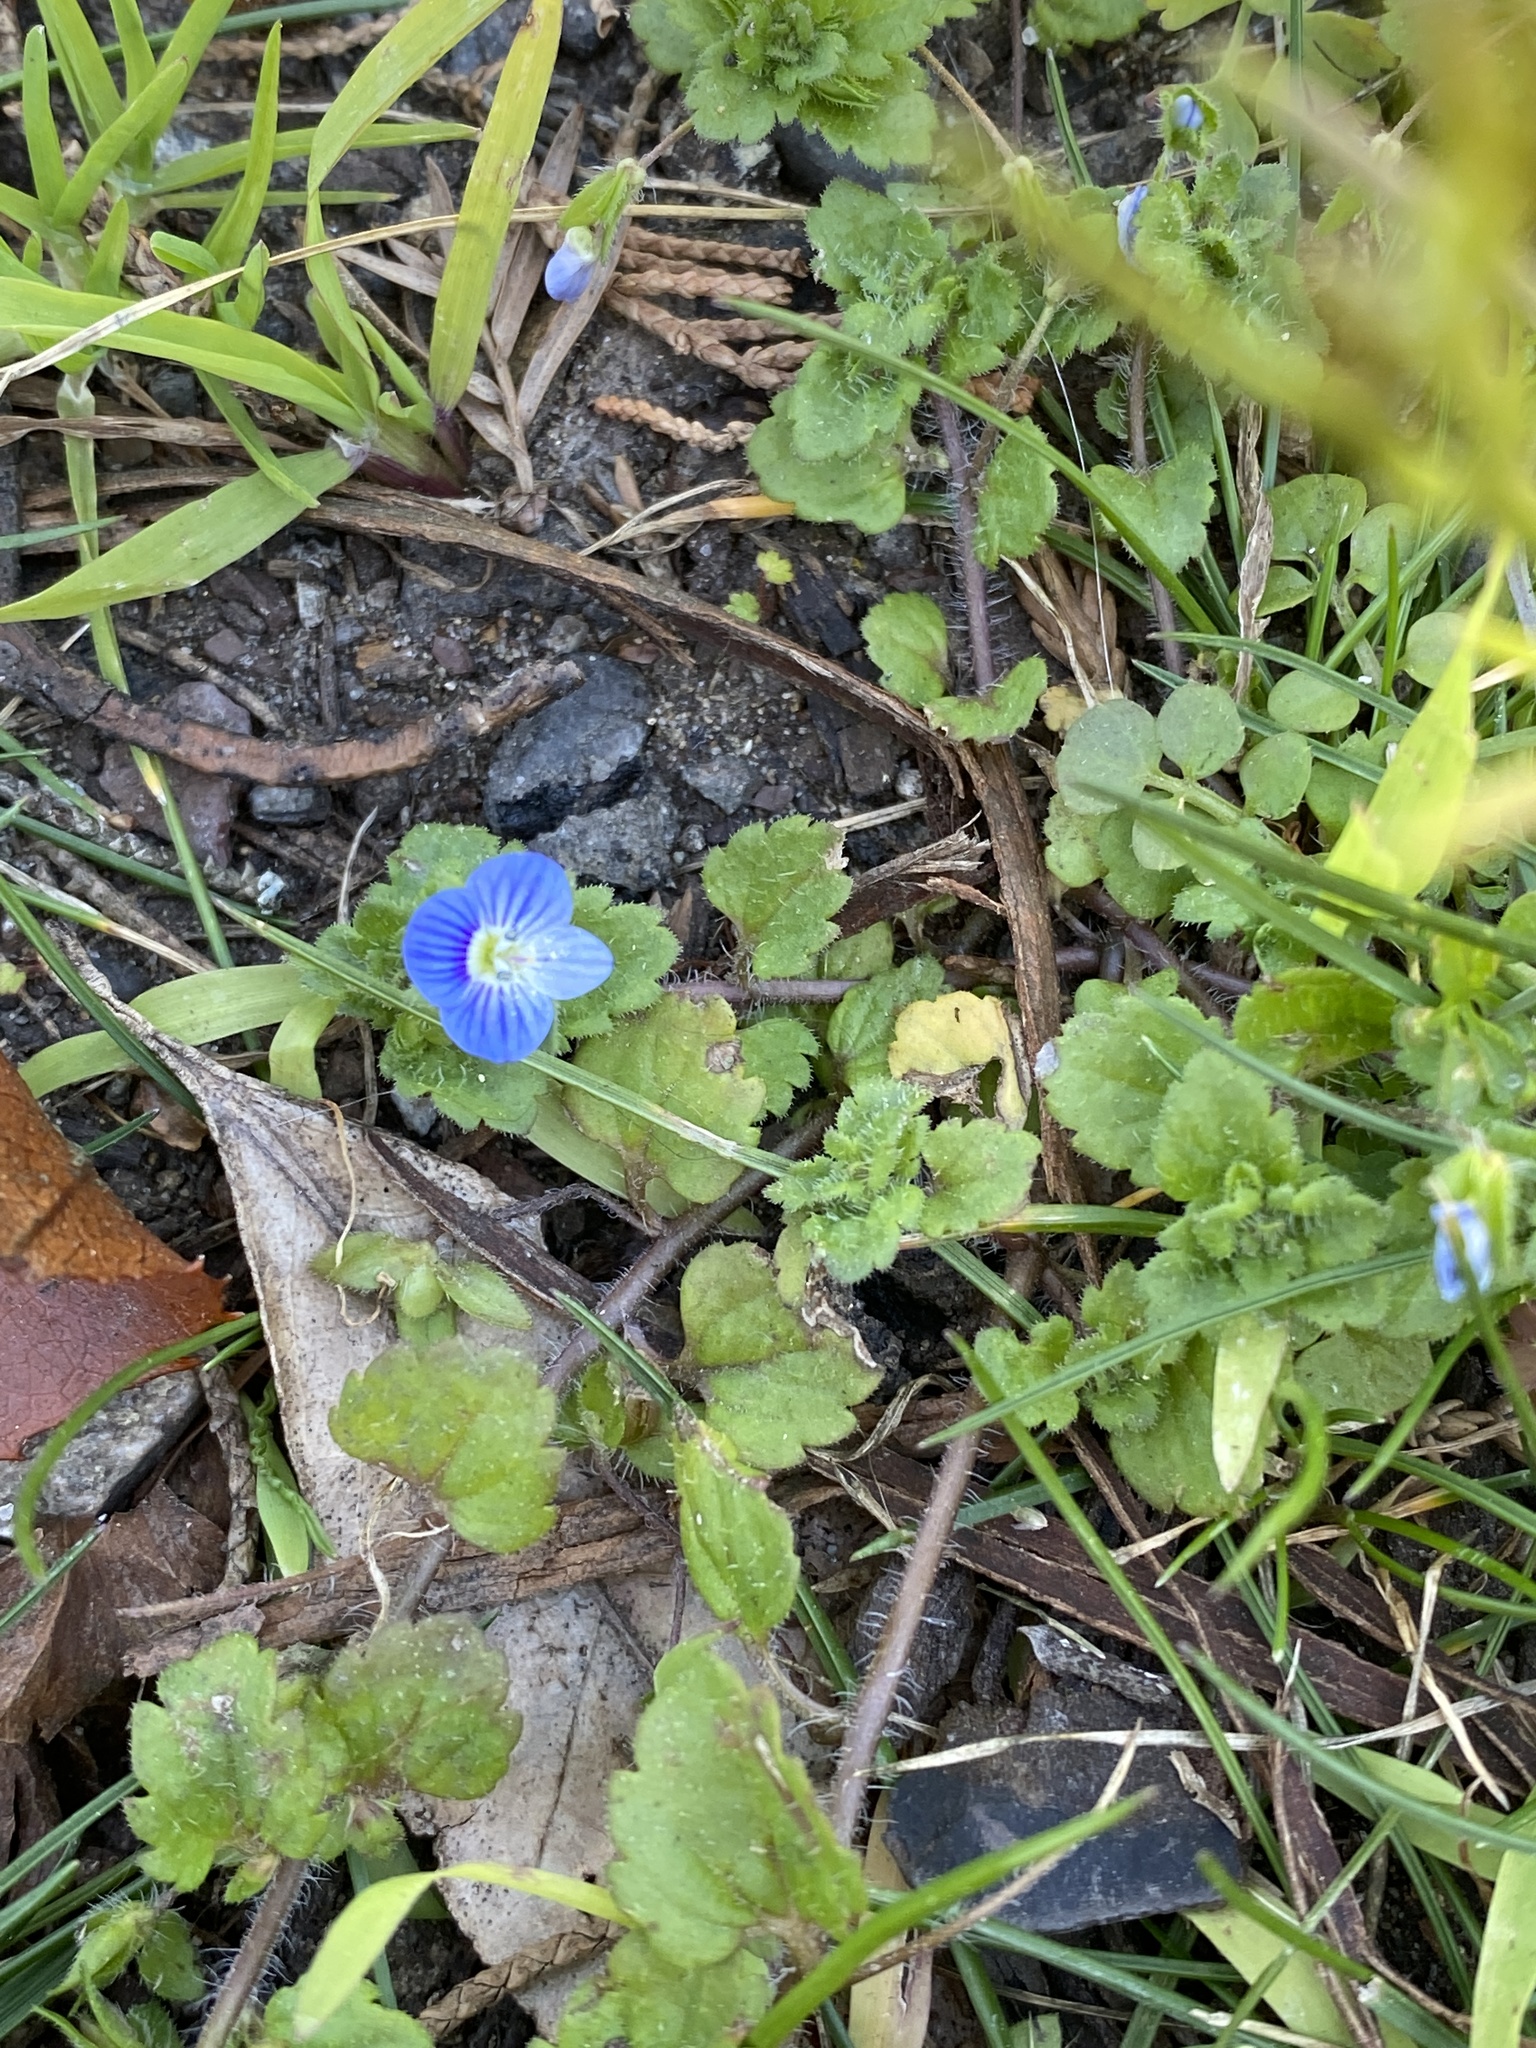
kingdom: Plantae
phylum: Tracheophyta
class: Magnoliopsida
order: Lamiales
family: Plantaginaceae
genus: Veronica
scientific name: Veronica persica
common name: Common field-speedwell
